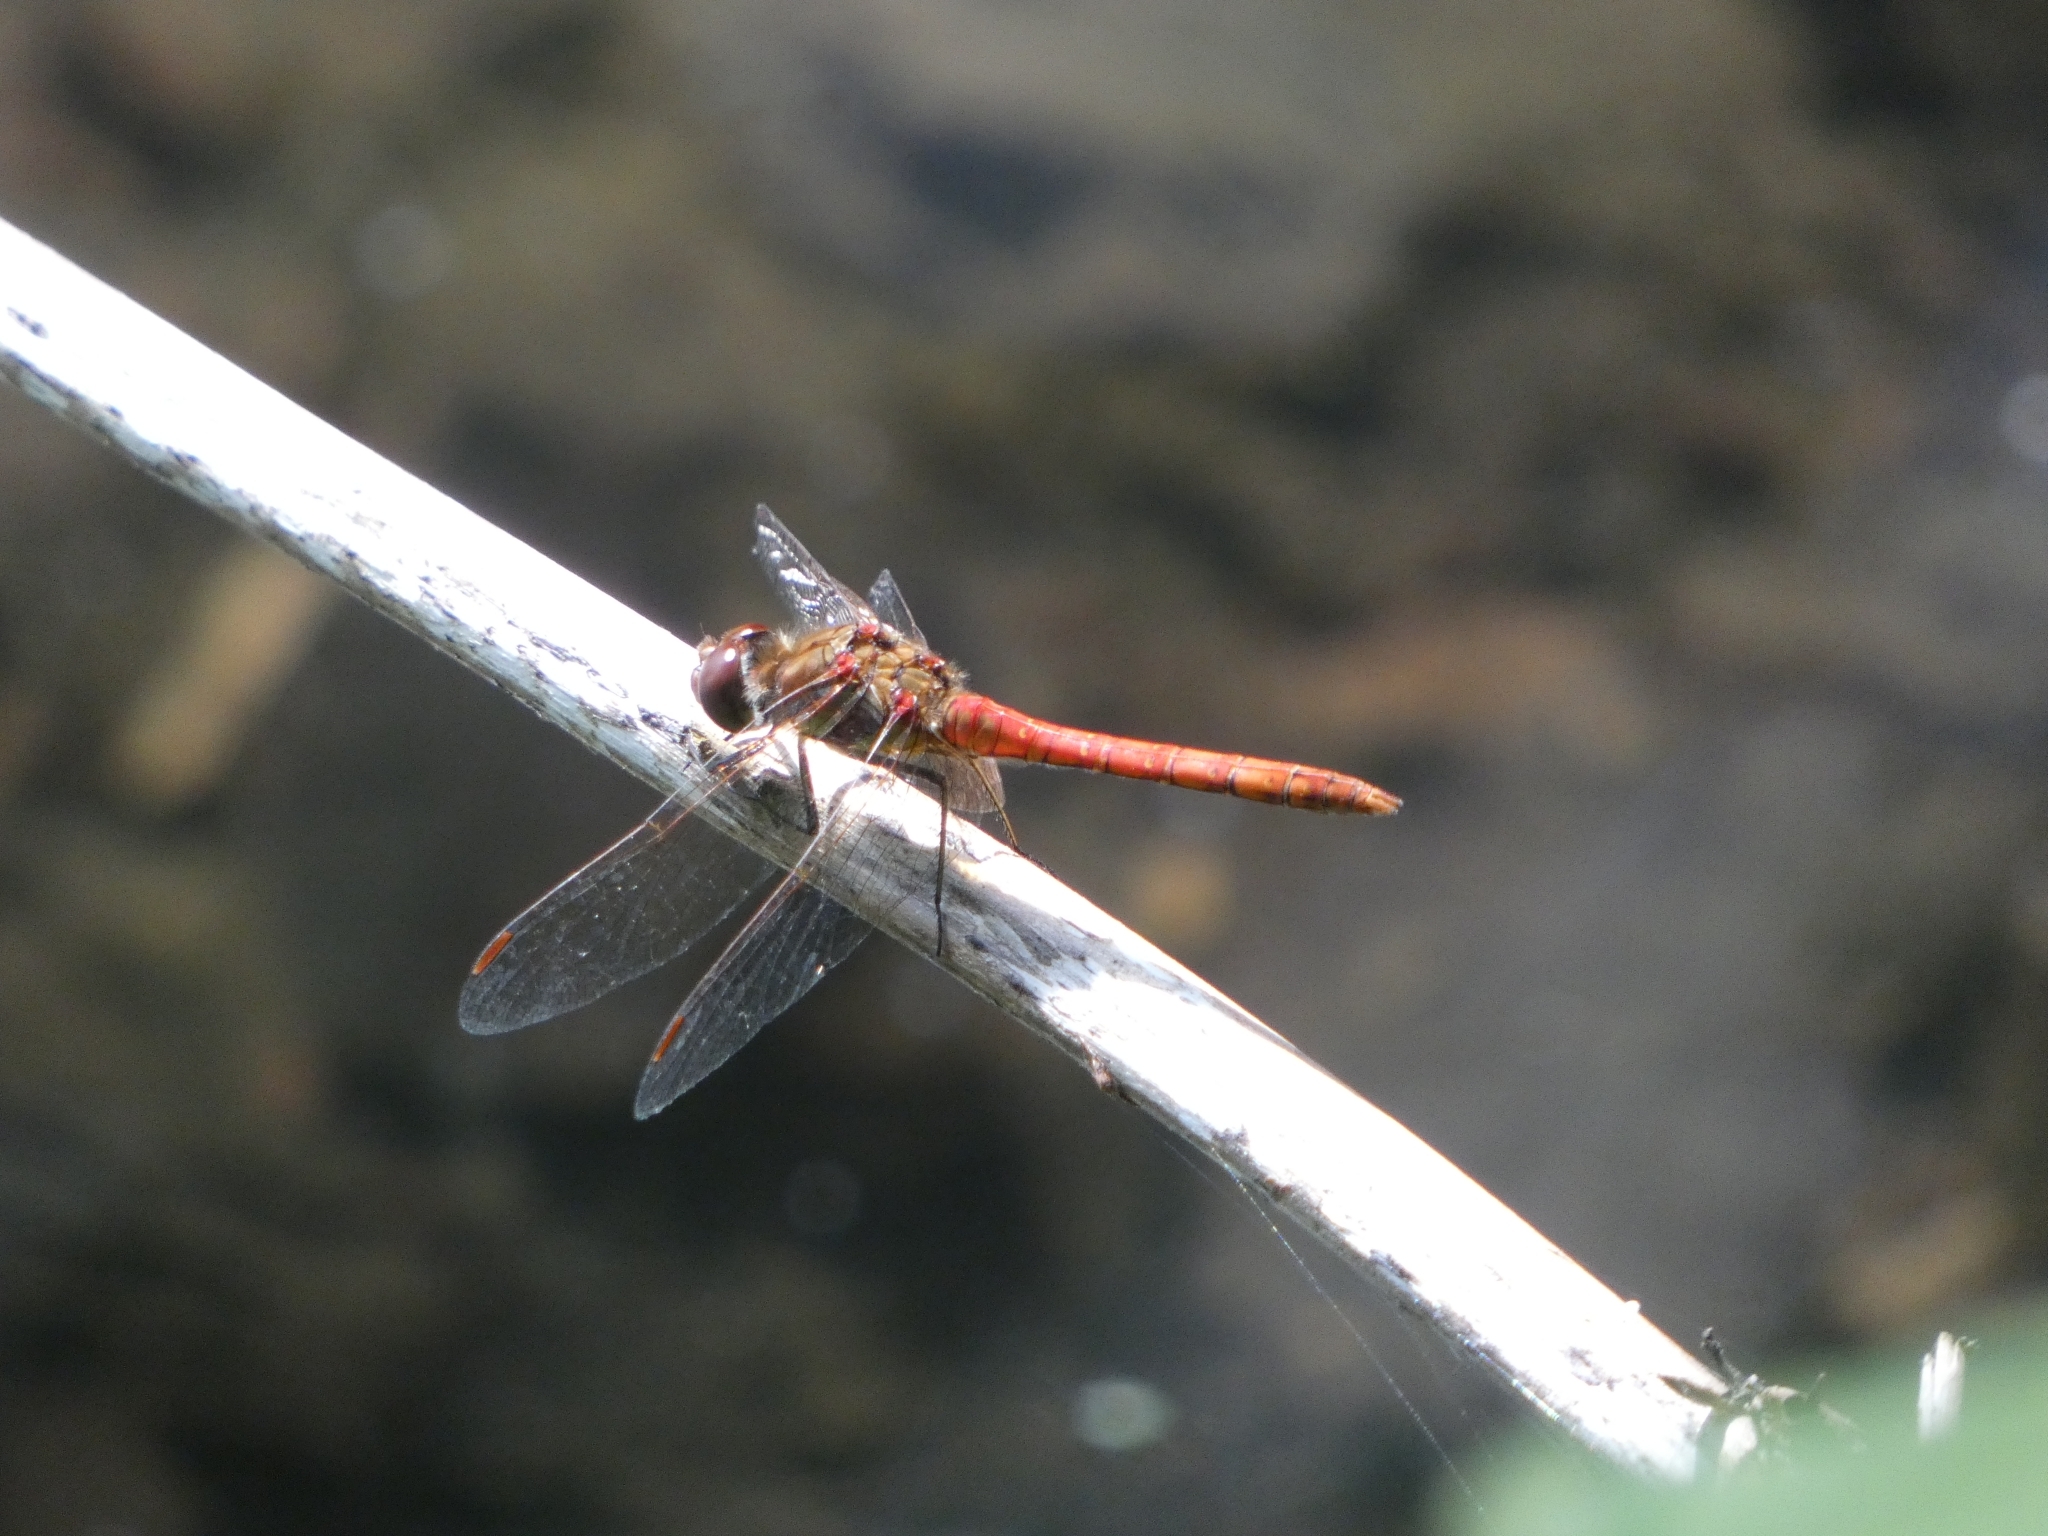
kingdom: Animalia
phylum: Arthropoda
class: Insecta
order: Odonata
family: Libellulidae
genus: Sympetrum
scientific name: Sympetrum striolatum
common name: Common darter
